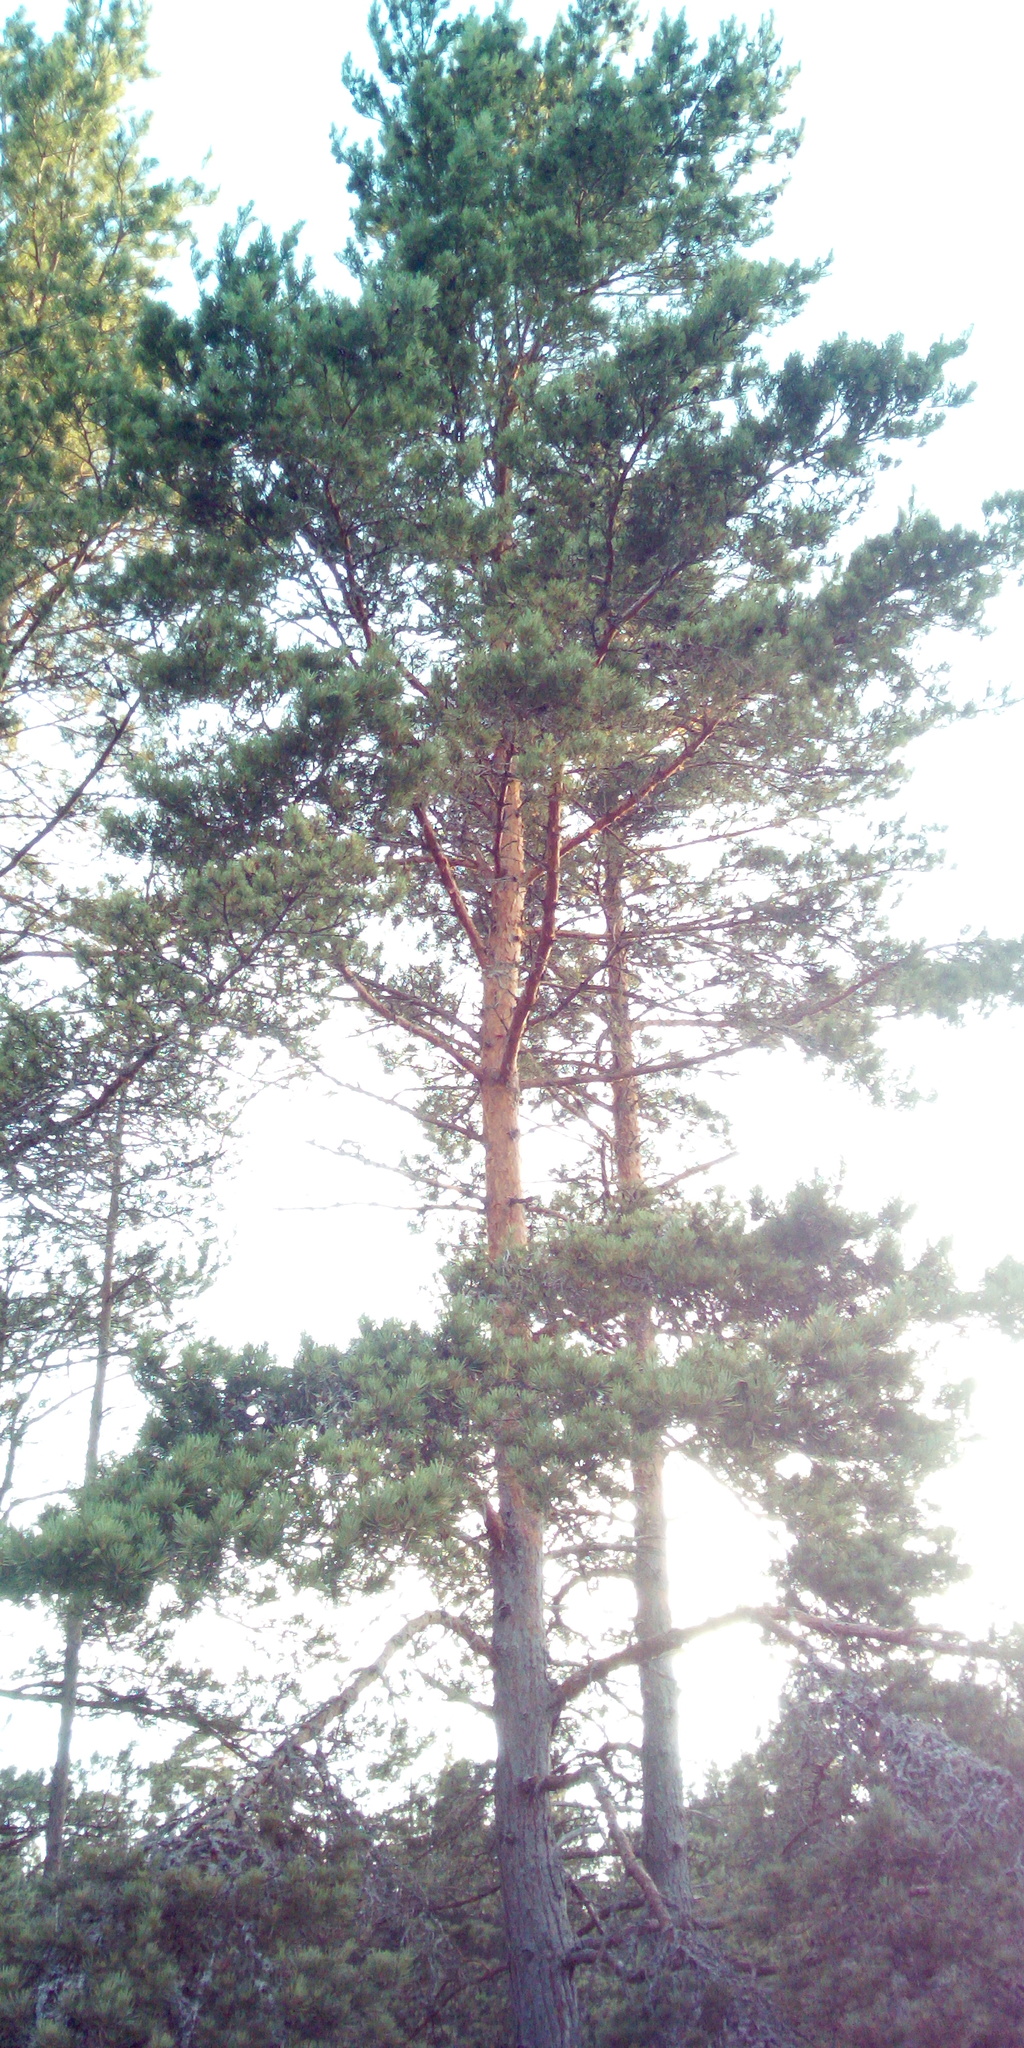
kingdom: Plantae
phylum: Tracheophyta
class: Pinopsida
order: Pinales
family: Pinaceae
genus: Pinus
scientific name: Pinus sylvestris
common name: Scots pine
